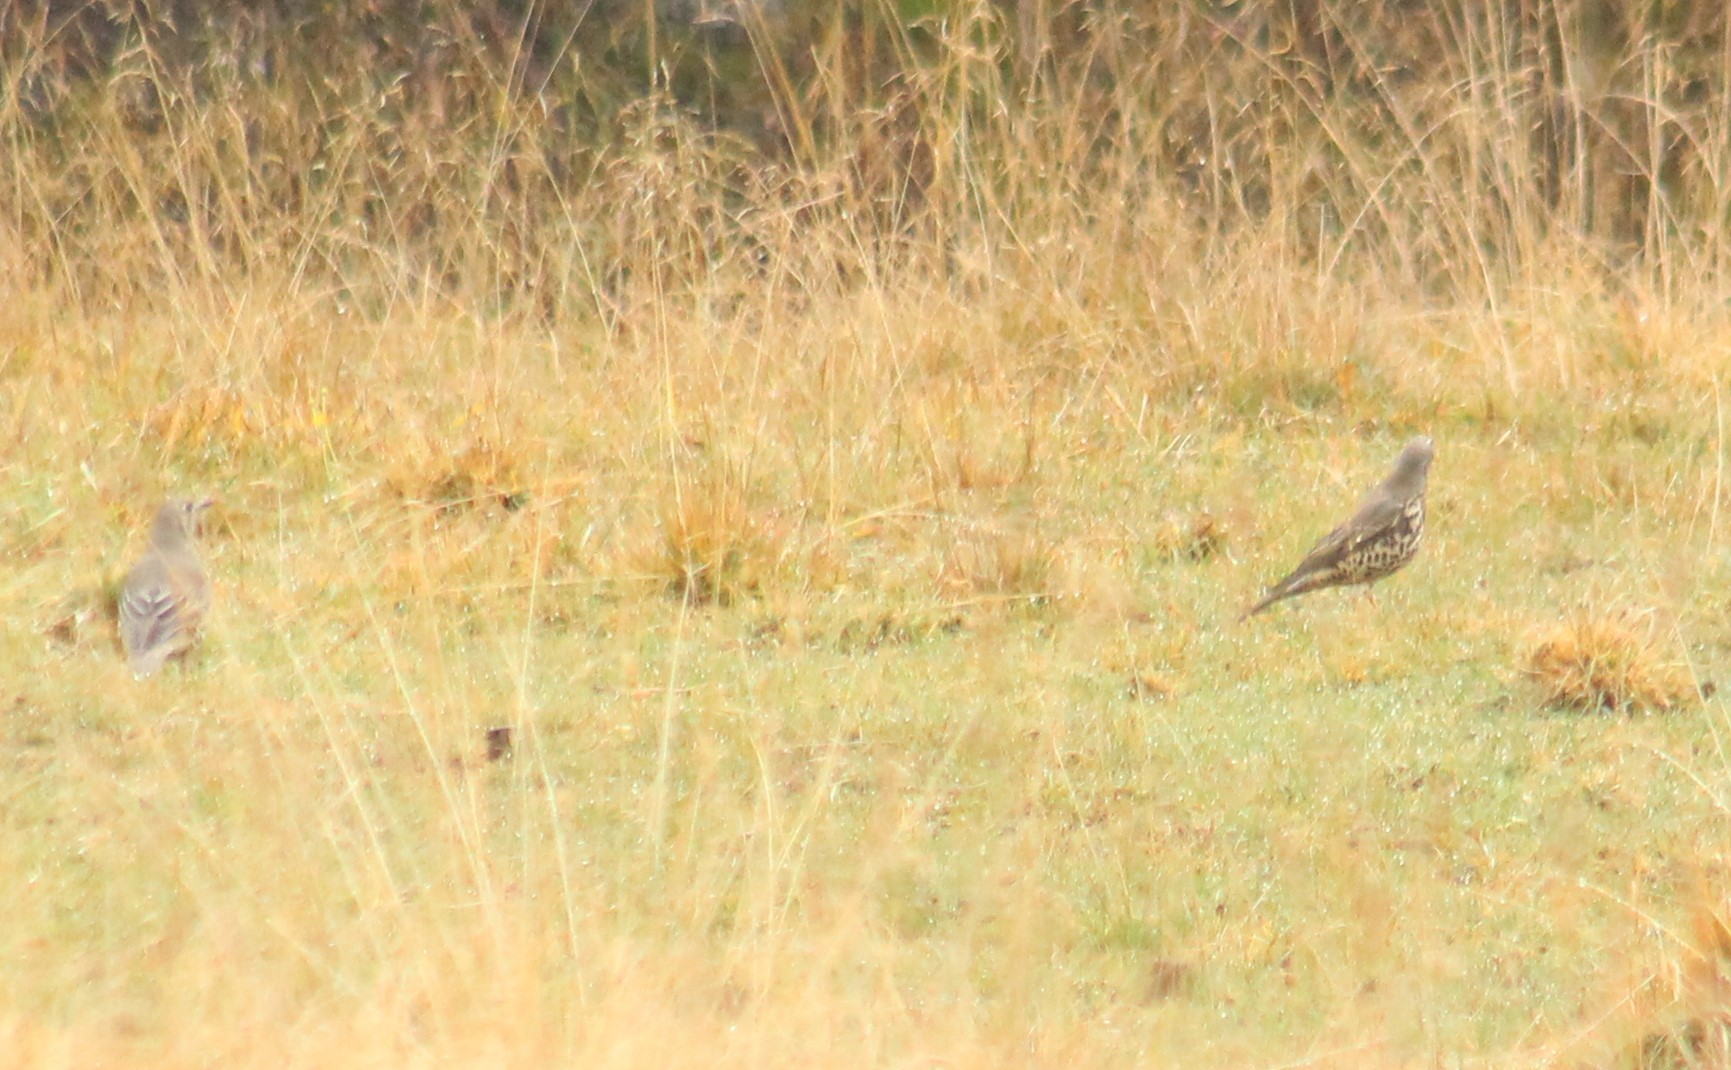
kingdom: Animalia
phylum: Chordata
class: Aves
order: Passeriformes
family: Turdidae
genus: Turdus
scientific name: Turdus viscivorus
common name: Mistle thrush
